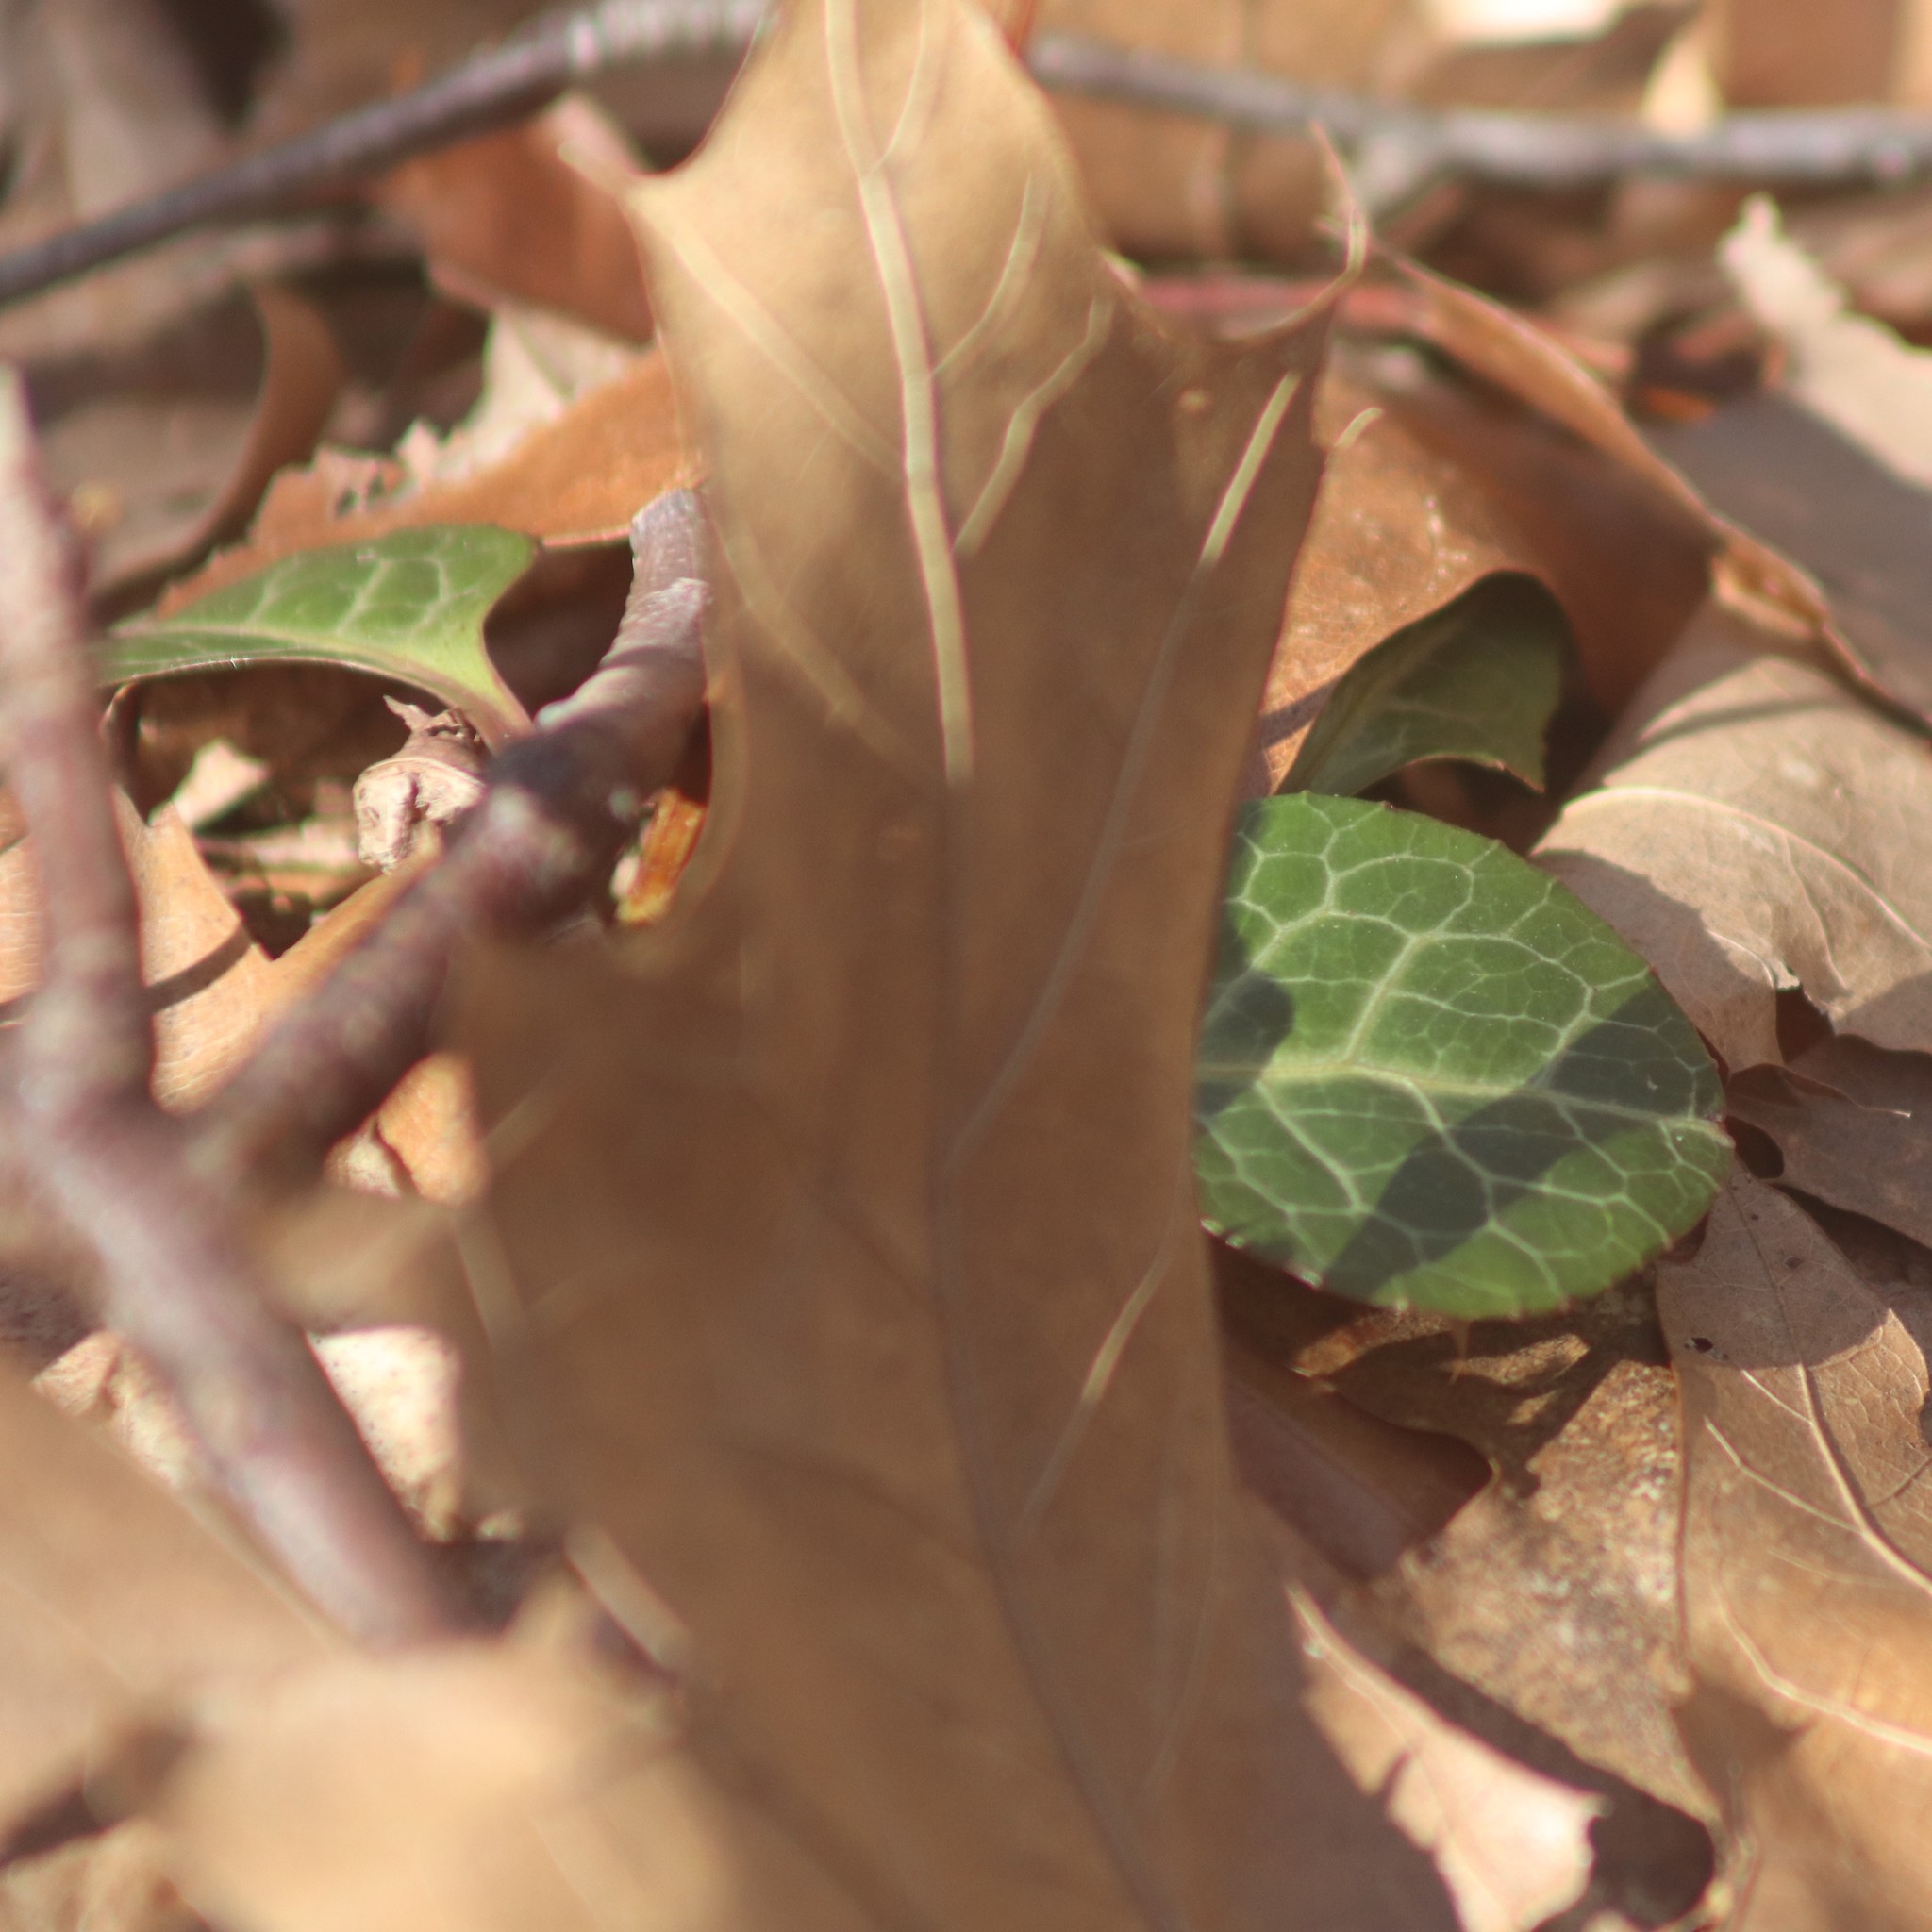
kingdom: Plantae
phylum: Tracheophyta
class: Magnoliopsida
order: Ericales
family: Ericaceae
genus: Pyrola
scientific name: Pyrola americana
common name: American wintergreen
